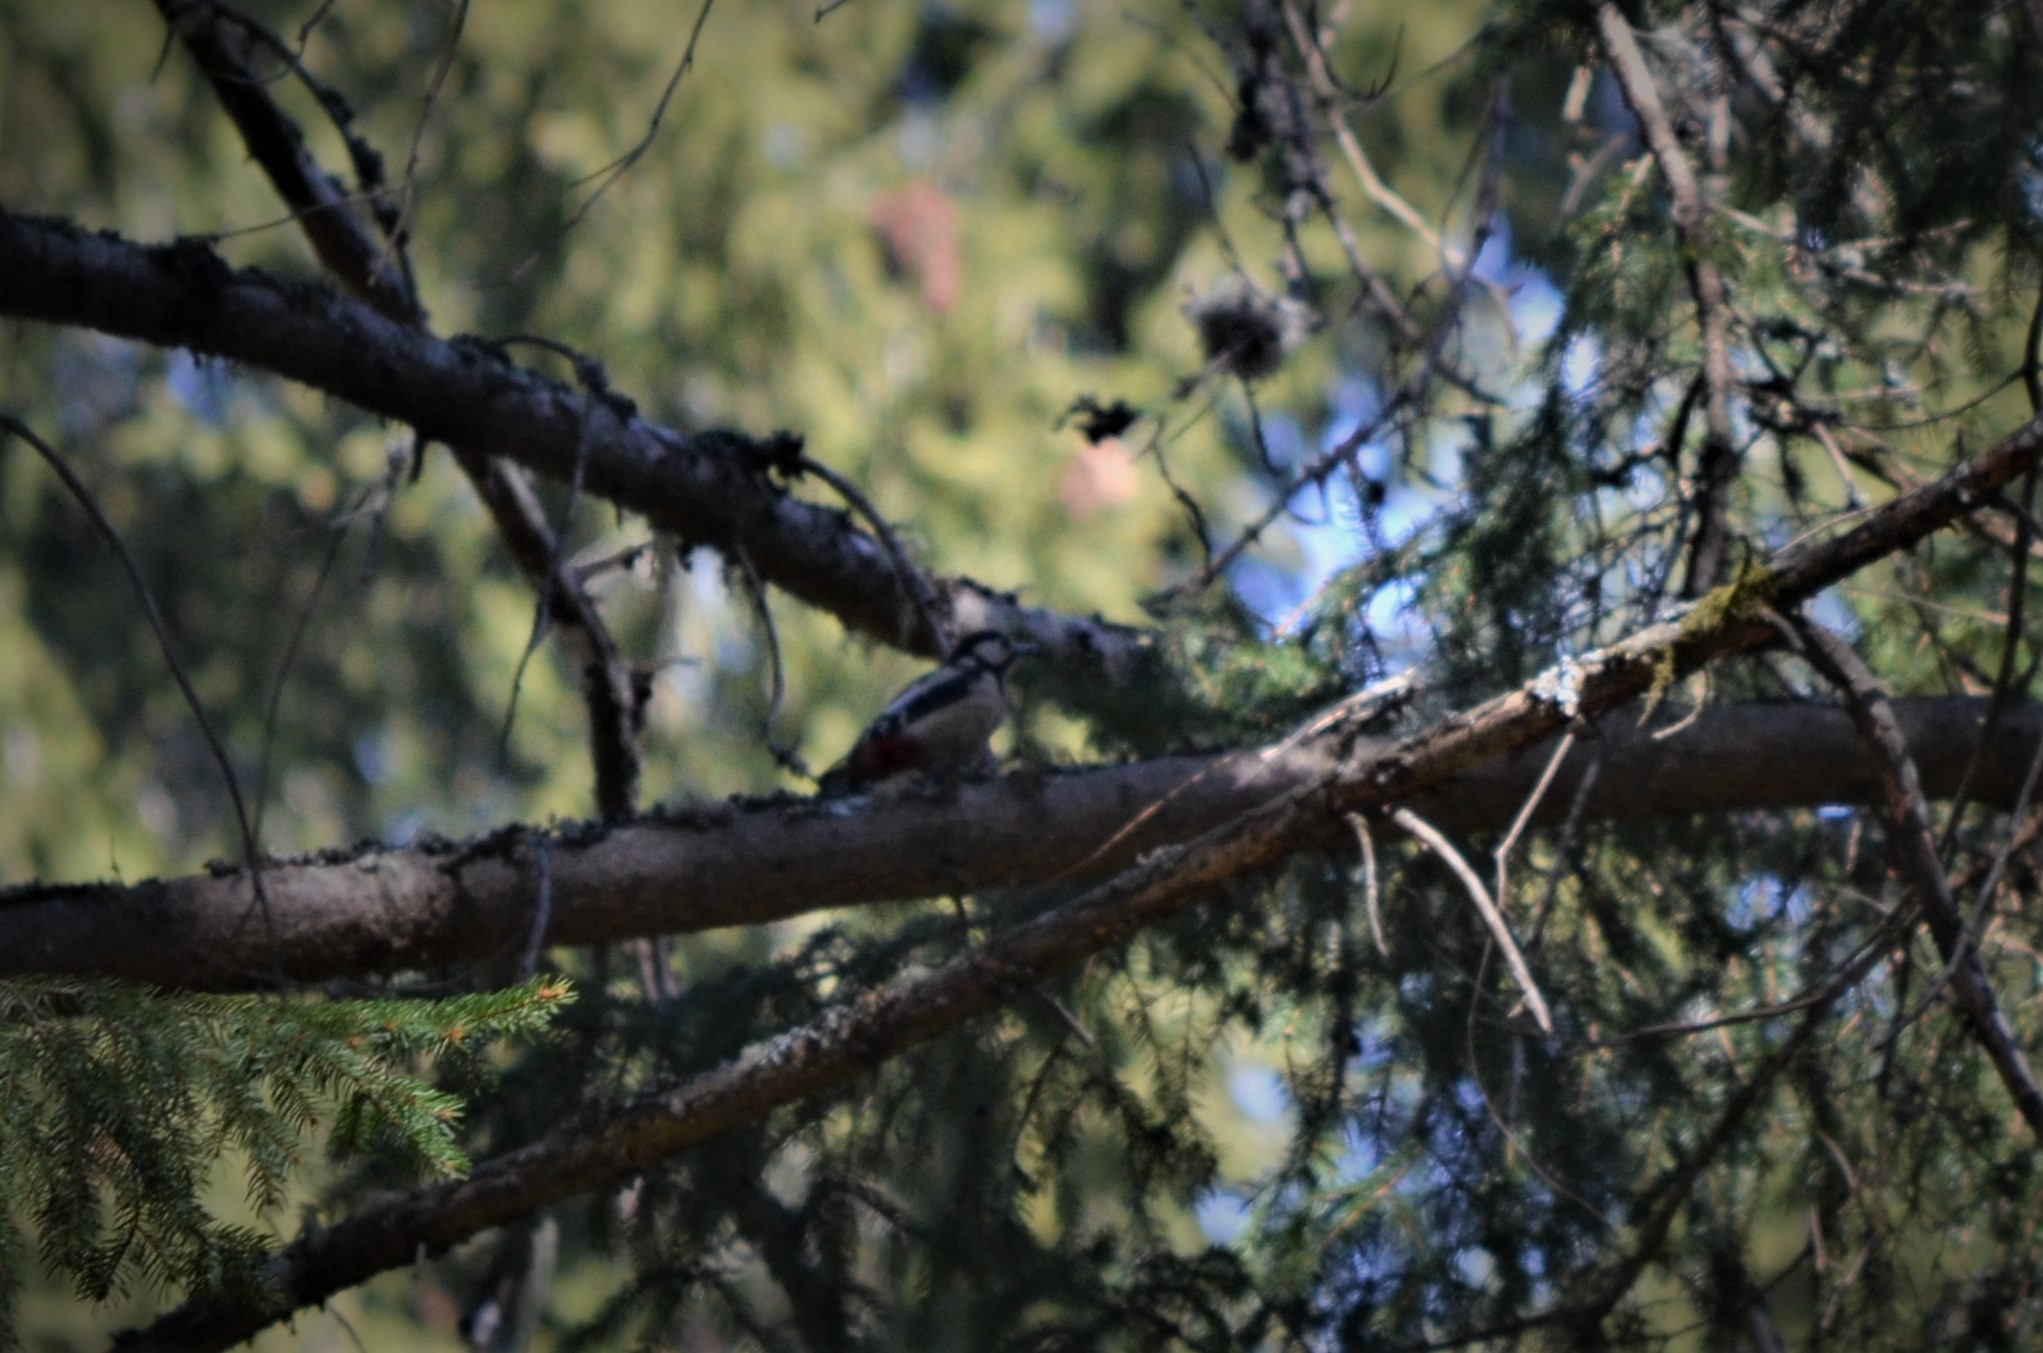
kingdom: Animalia
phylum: Chordata
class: Aves
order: Piciformes
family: Picidae
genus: Dendrocopos
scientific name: Dendrocopos major
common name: Great spotted woodpecker
